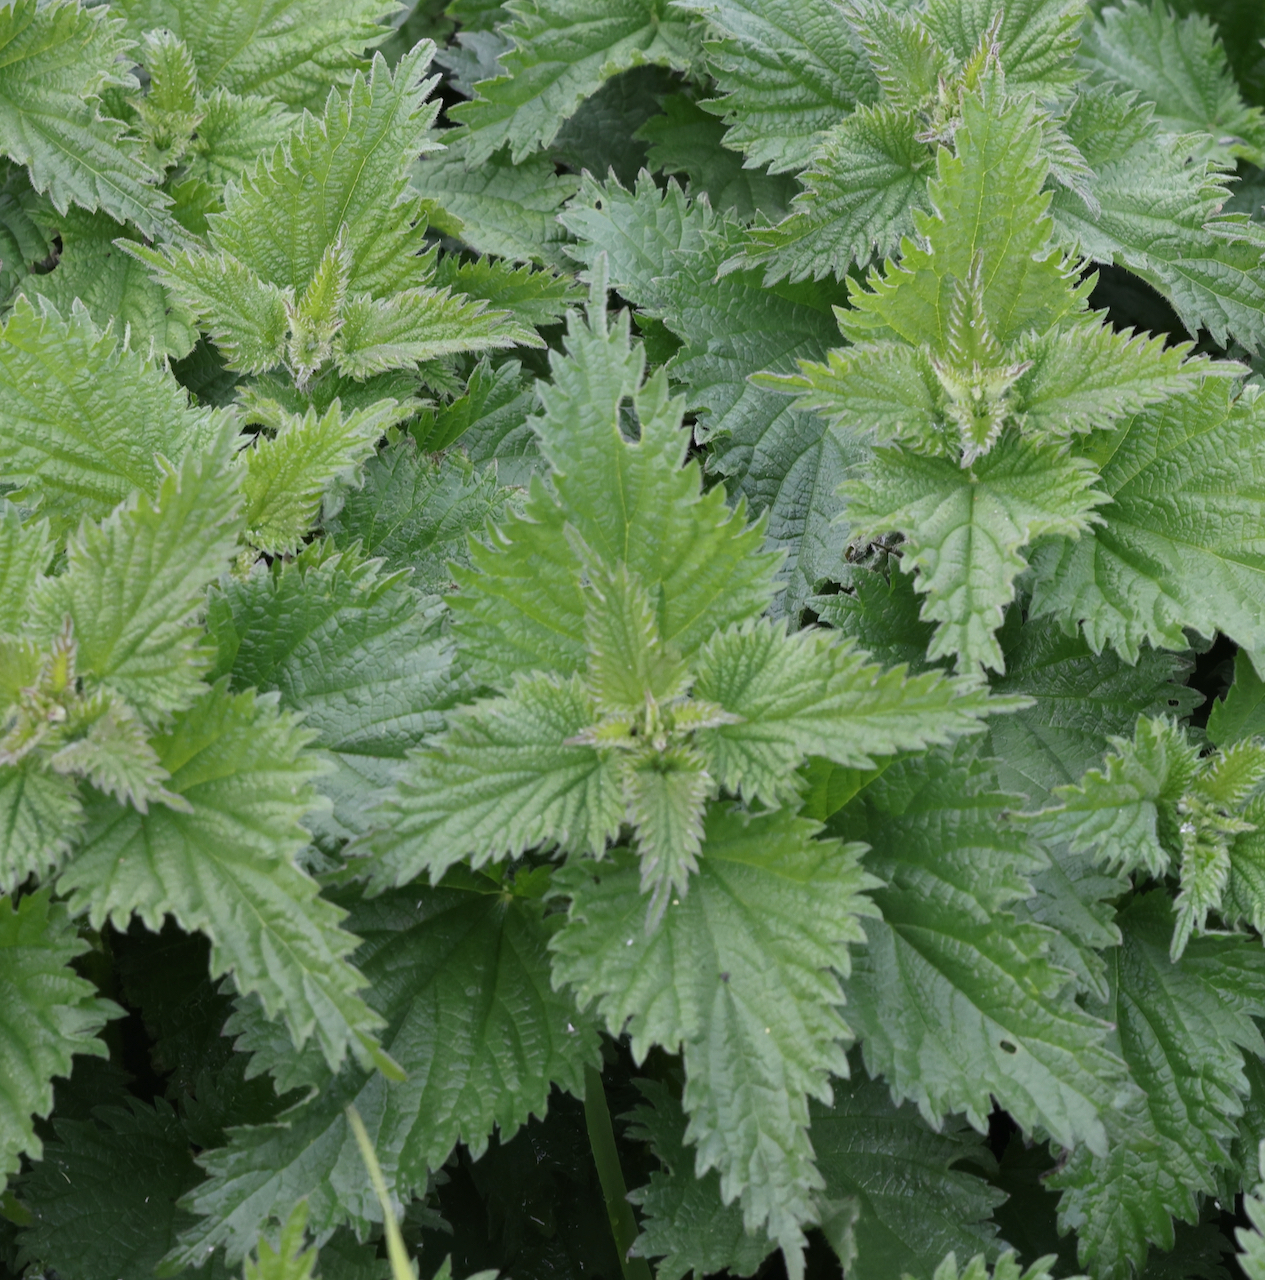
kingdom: Plantae
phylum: Tracheophyta
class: Magnoliopsida
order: Rosales
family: Urticaceae
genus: Urtica
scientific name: Urtica dioica
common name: Common nettle
